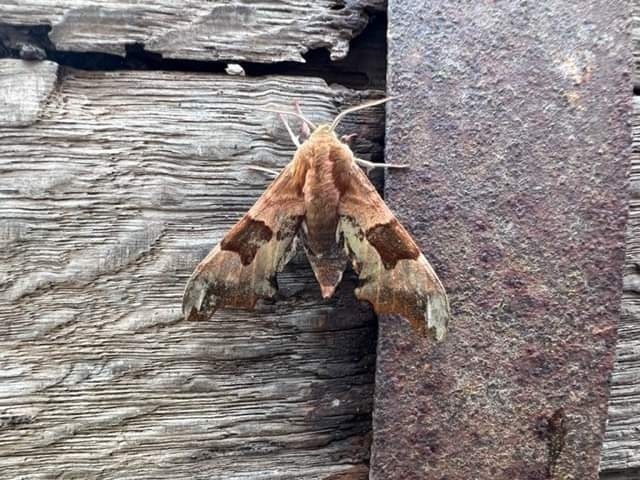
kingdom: Animalia
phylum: Arthropoda
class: Insecta
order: Lepidoptera
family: Sphingidae
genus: Mimas
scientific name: Mimas tiliae
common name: Lime hawk-moth
